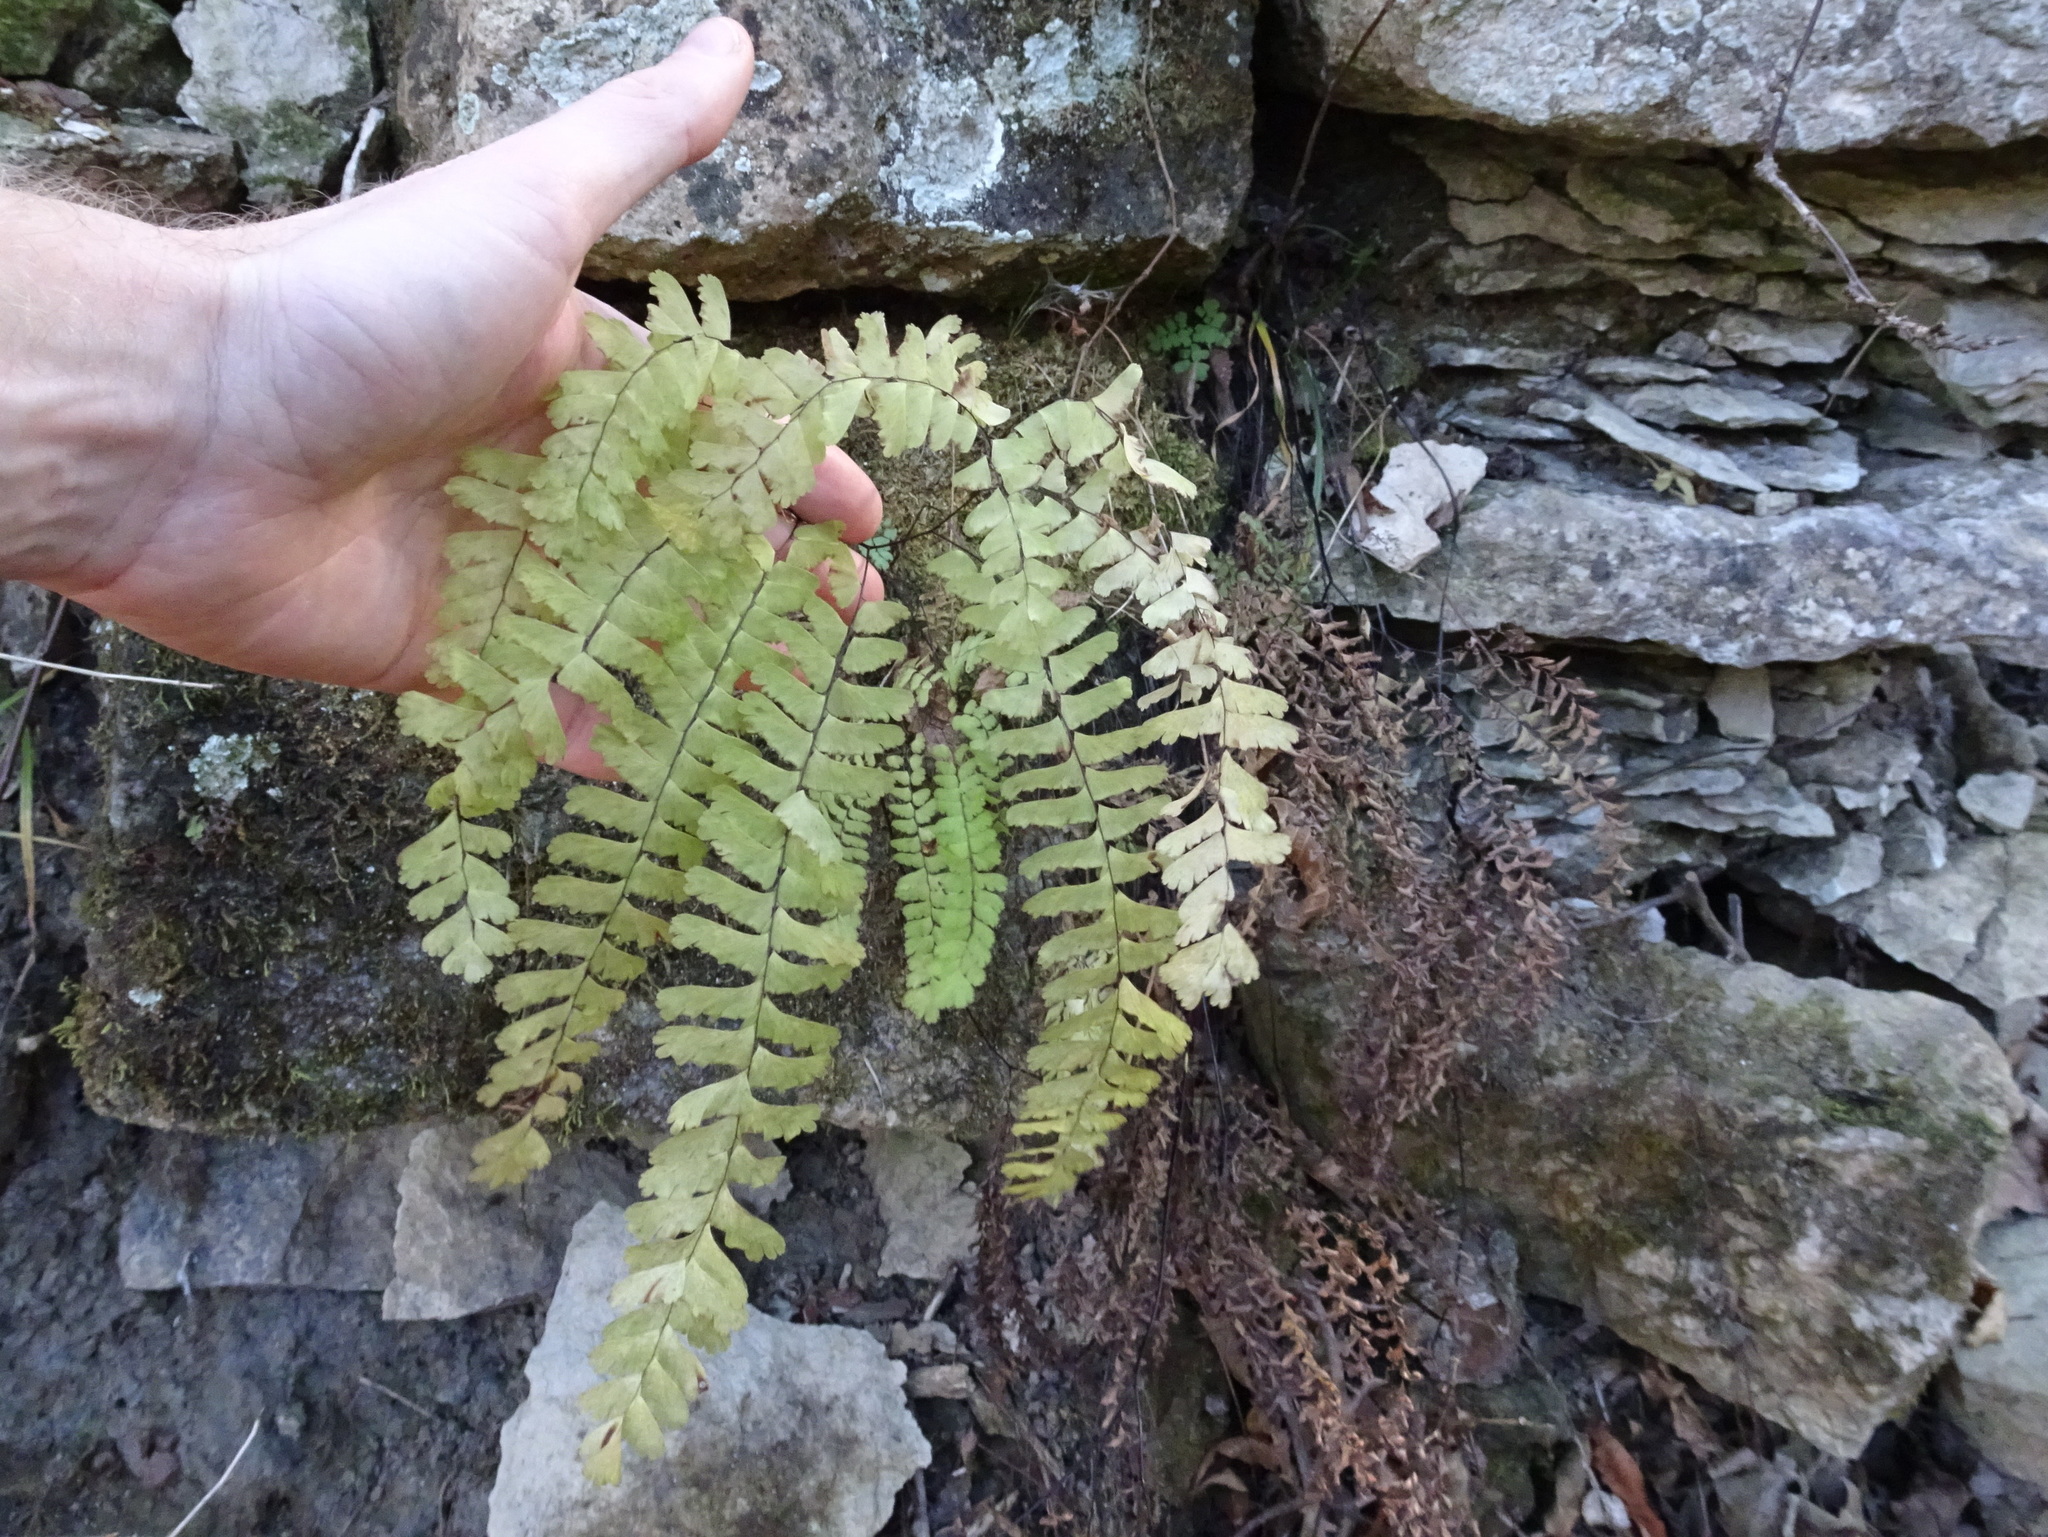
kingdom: Plantae
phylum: Tracheophyta
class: Polypodiopsida
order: Polypodiales
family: Pteridaceae
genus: Adiantum
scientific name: Adiantum pedatum
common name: Five-finger fern
